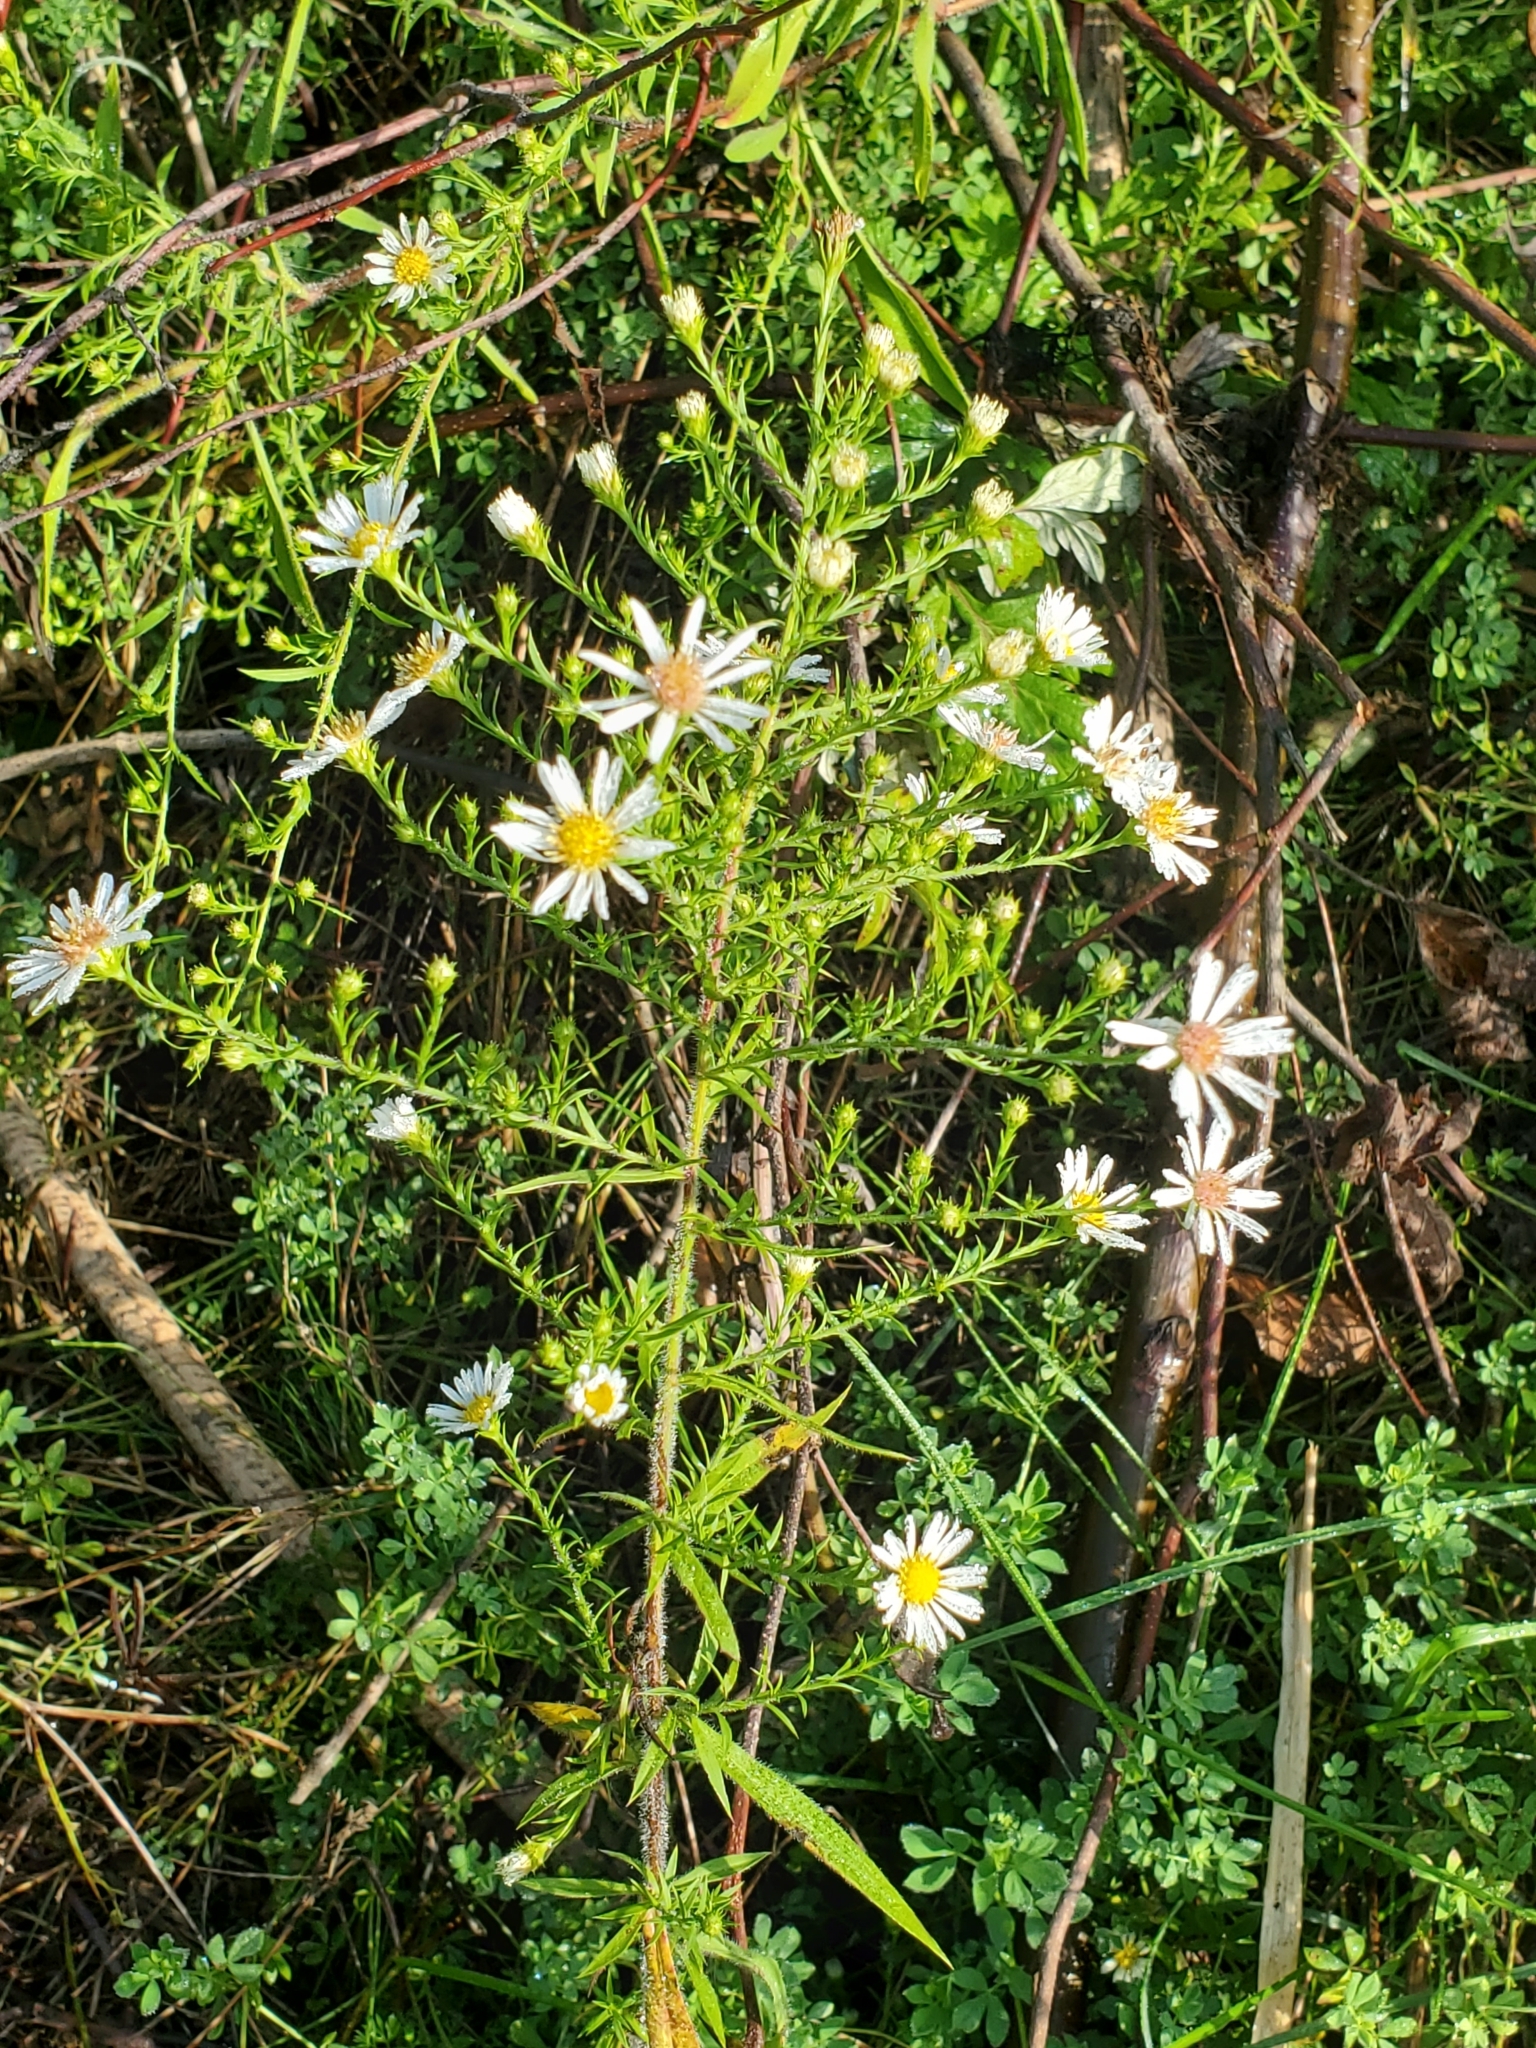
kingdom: Plantae
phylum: Tracheophyta
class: Magnoliopsida
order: Asterales
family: Asteraceae
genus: Symphyotrichum
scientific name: Symphyotrichum pilosum
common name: Awl aster
